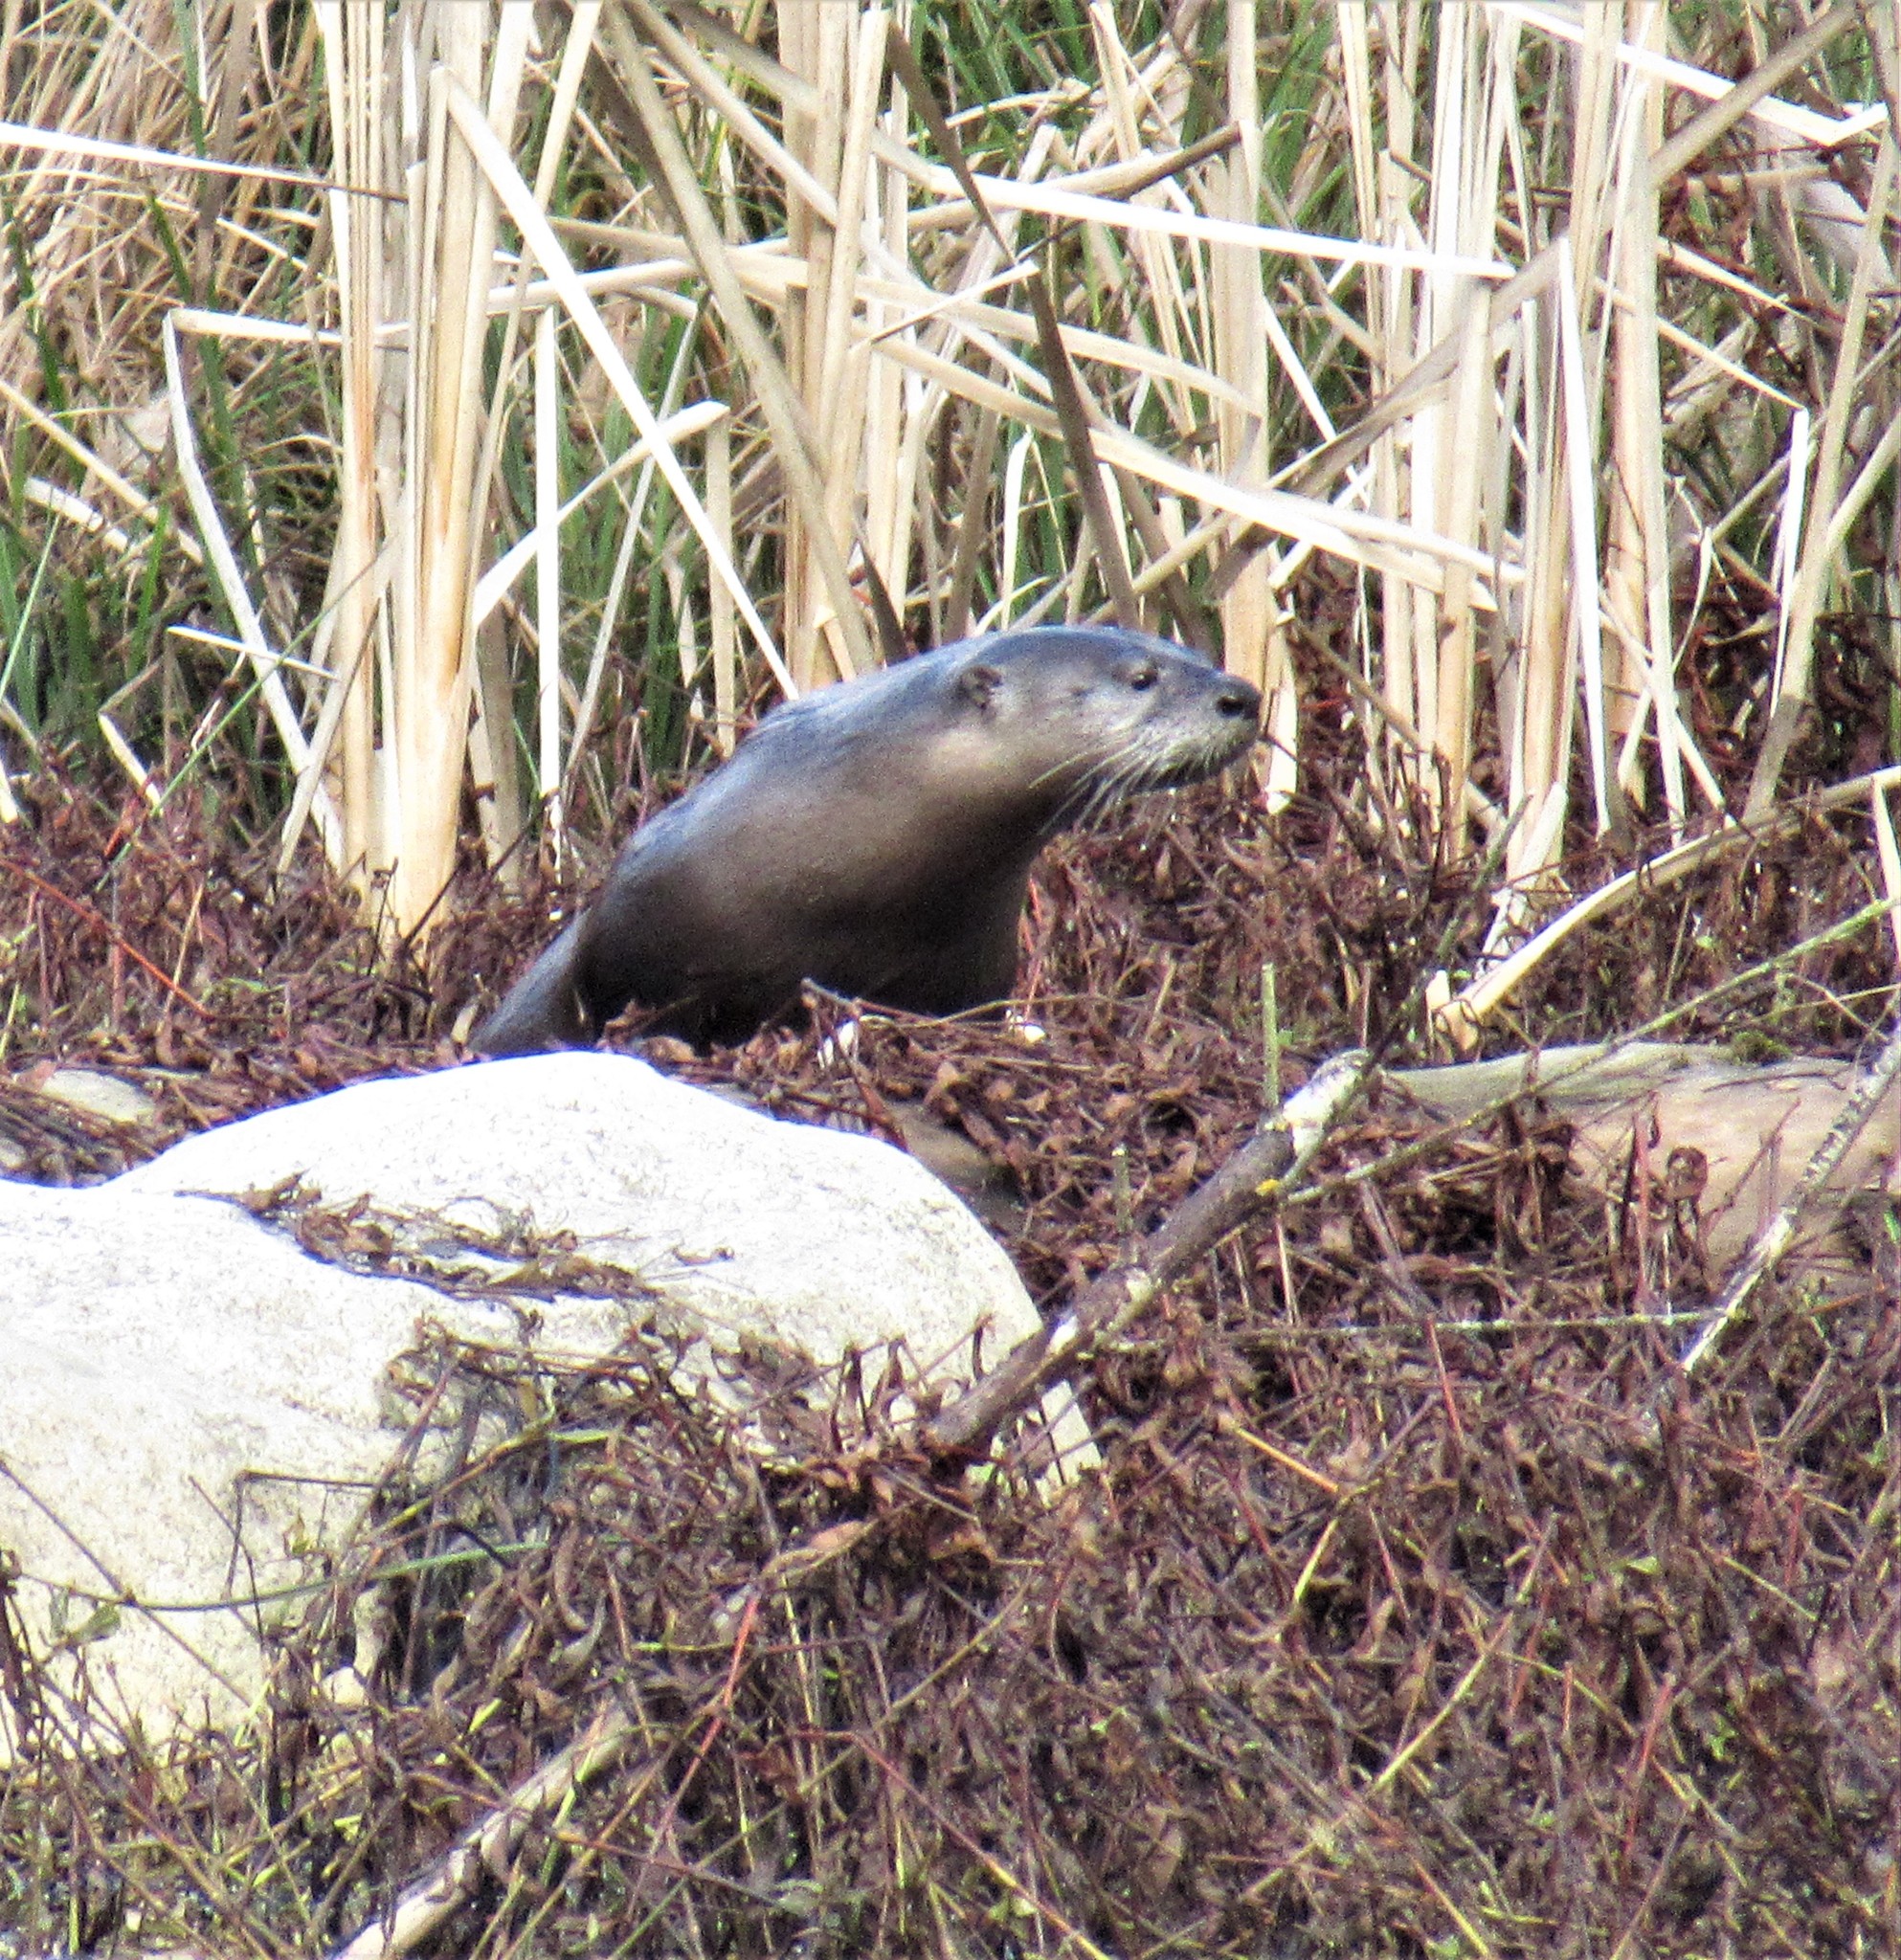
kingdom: Animalia
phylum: Chordata
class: Mammalia
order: Carnivora
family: Mustelidae
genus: Lontra
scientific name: Lontra canadensis
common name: North american river otter
